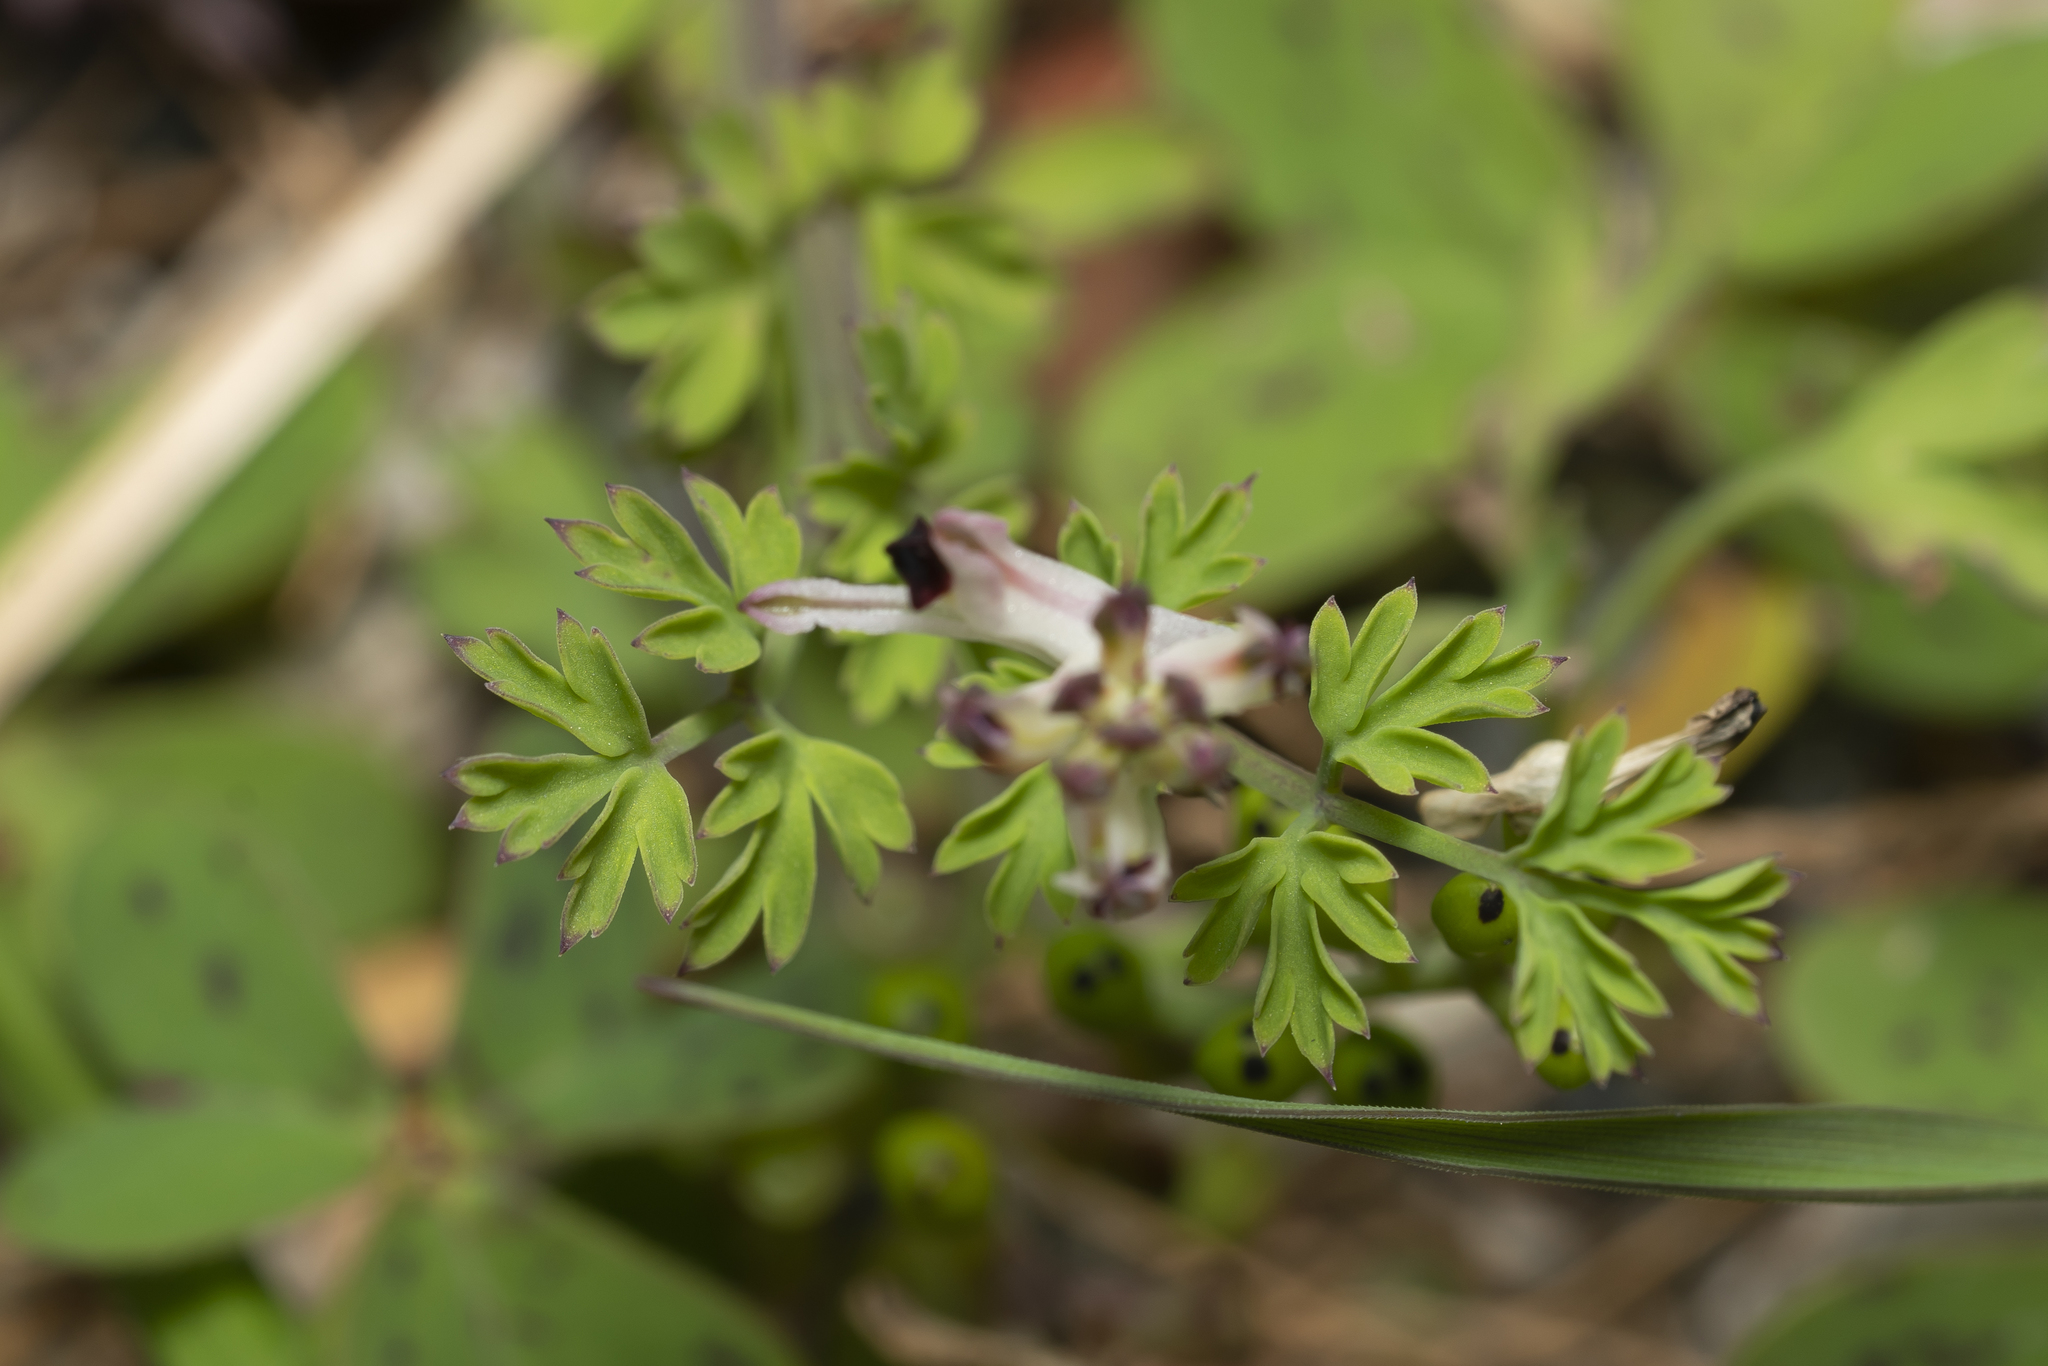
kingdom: Plantae
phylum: Tracheophyta
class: Magnoliopsida
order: Ranunculales
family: Papaveraceae
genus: Fumaria
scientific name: Fumaria judaica
